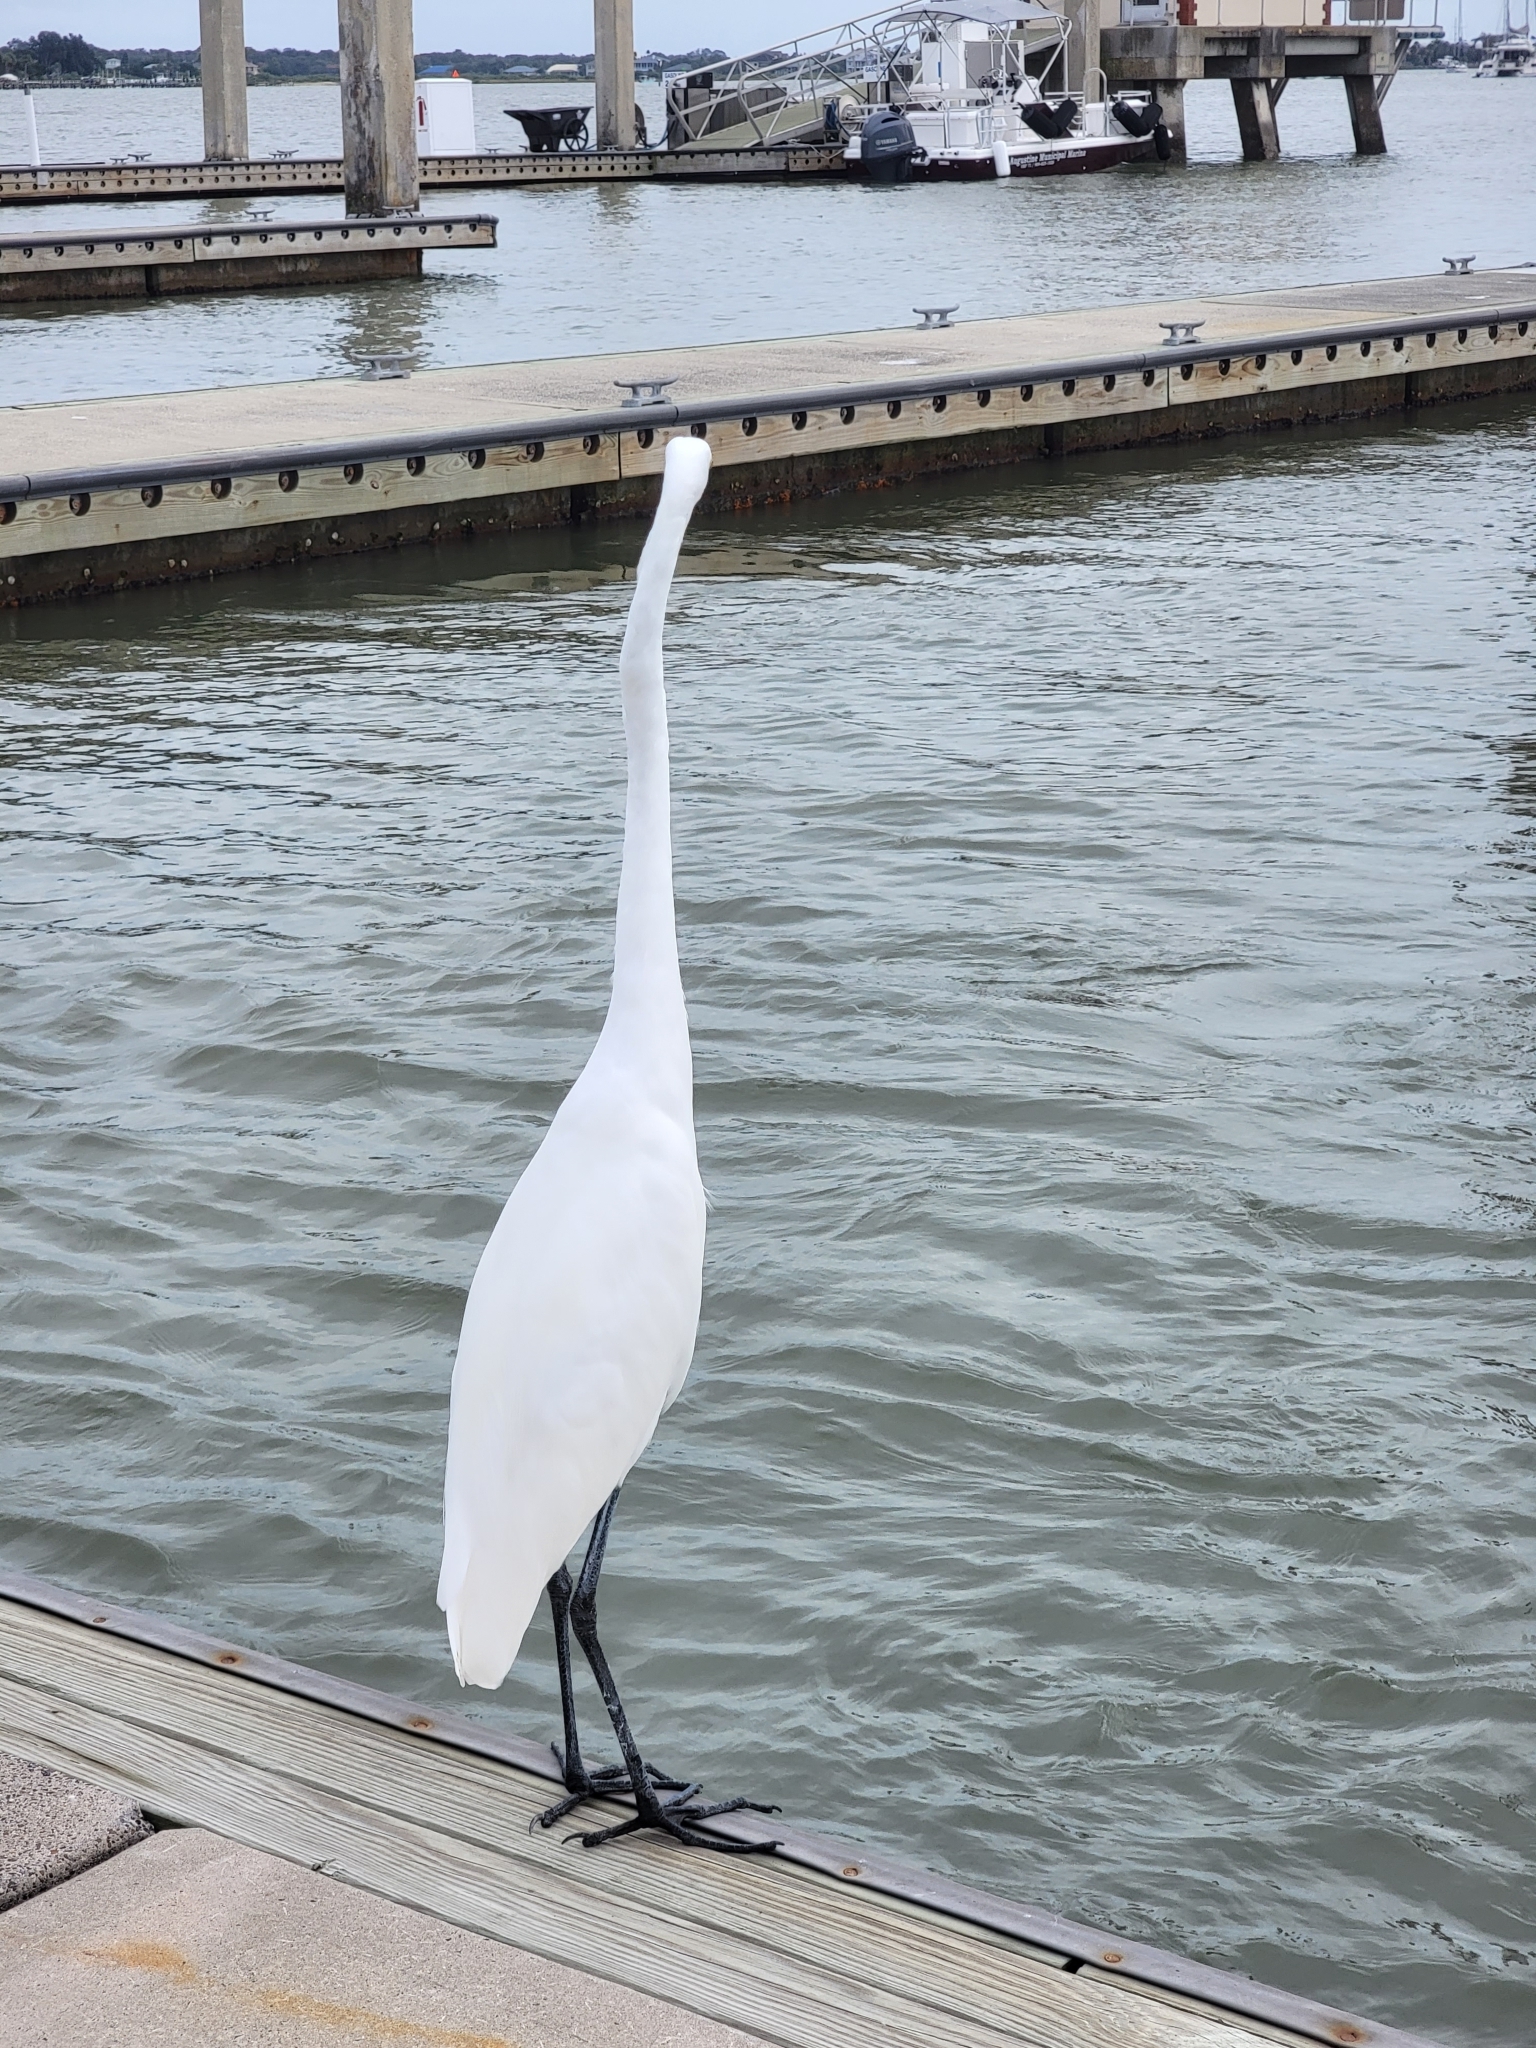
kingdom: Animalia
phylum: Chordata
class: Aves
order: Pelecaniformes
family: Ardeidae
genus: Ardea
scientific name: Ardea alba
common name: Great egret
